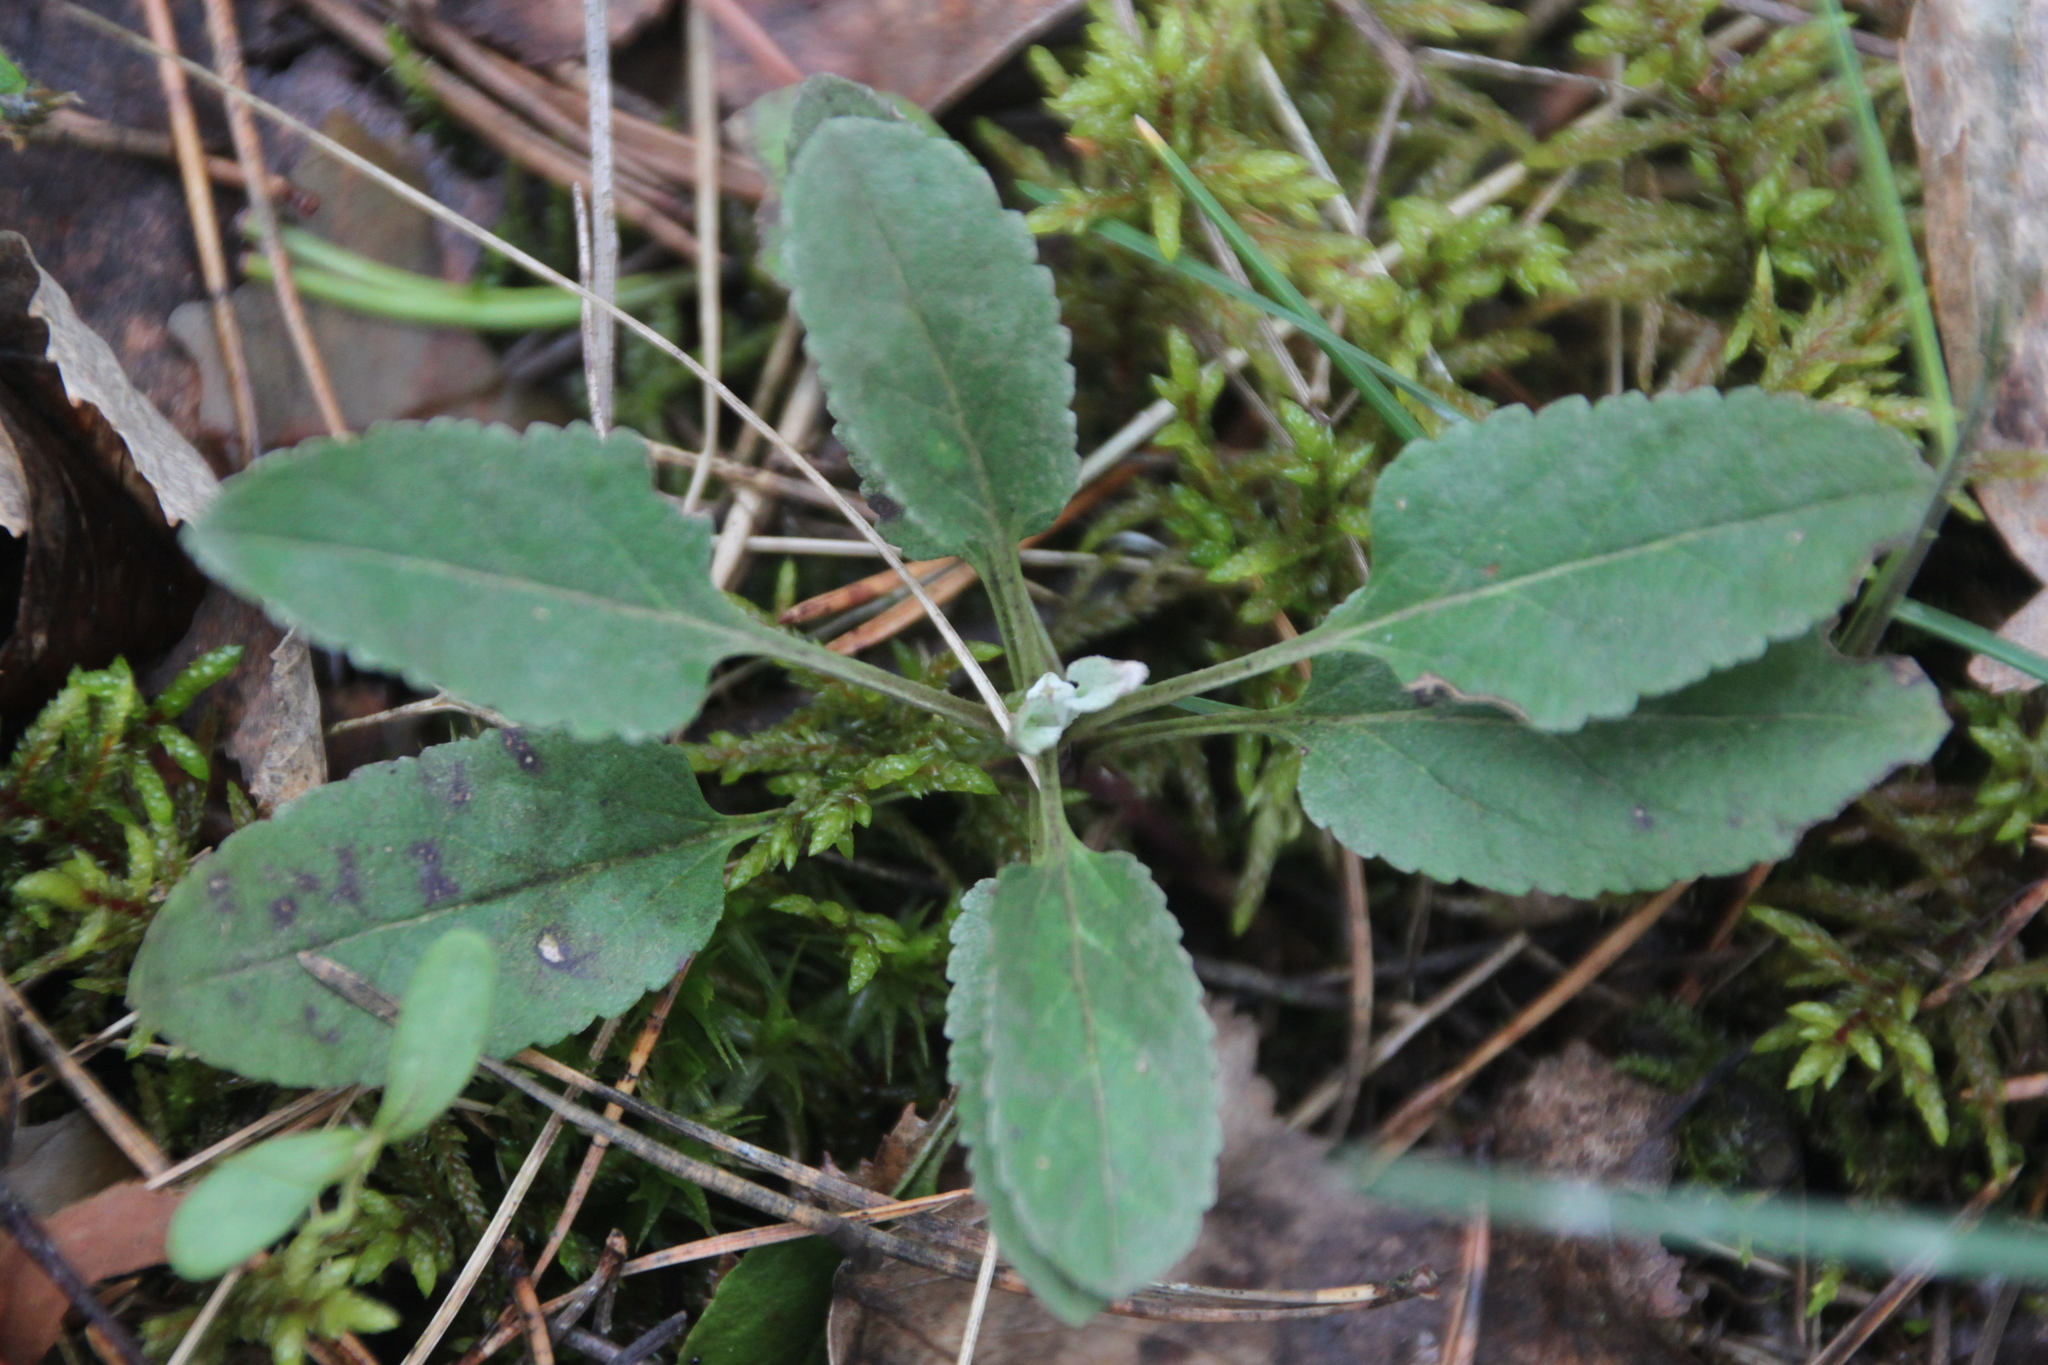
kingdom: Plantae
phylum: Tracheophyta
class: Magnoliopsida
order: Lamiales
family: Plantaginaceae
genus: Veronica
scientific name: Veronica incana
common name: Silver speedwell
